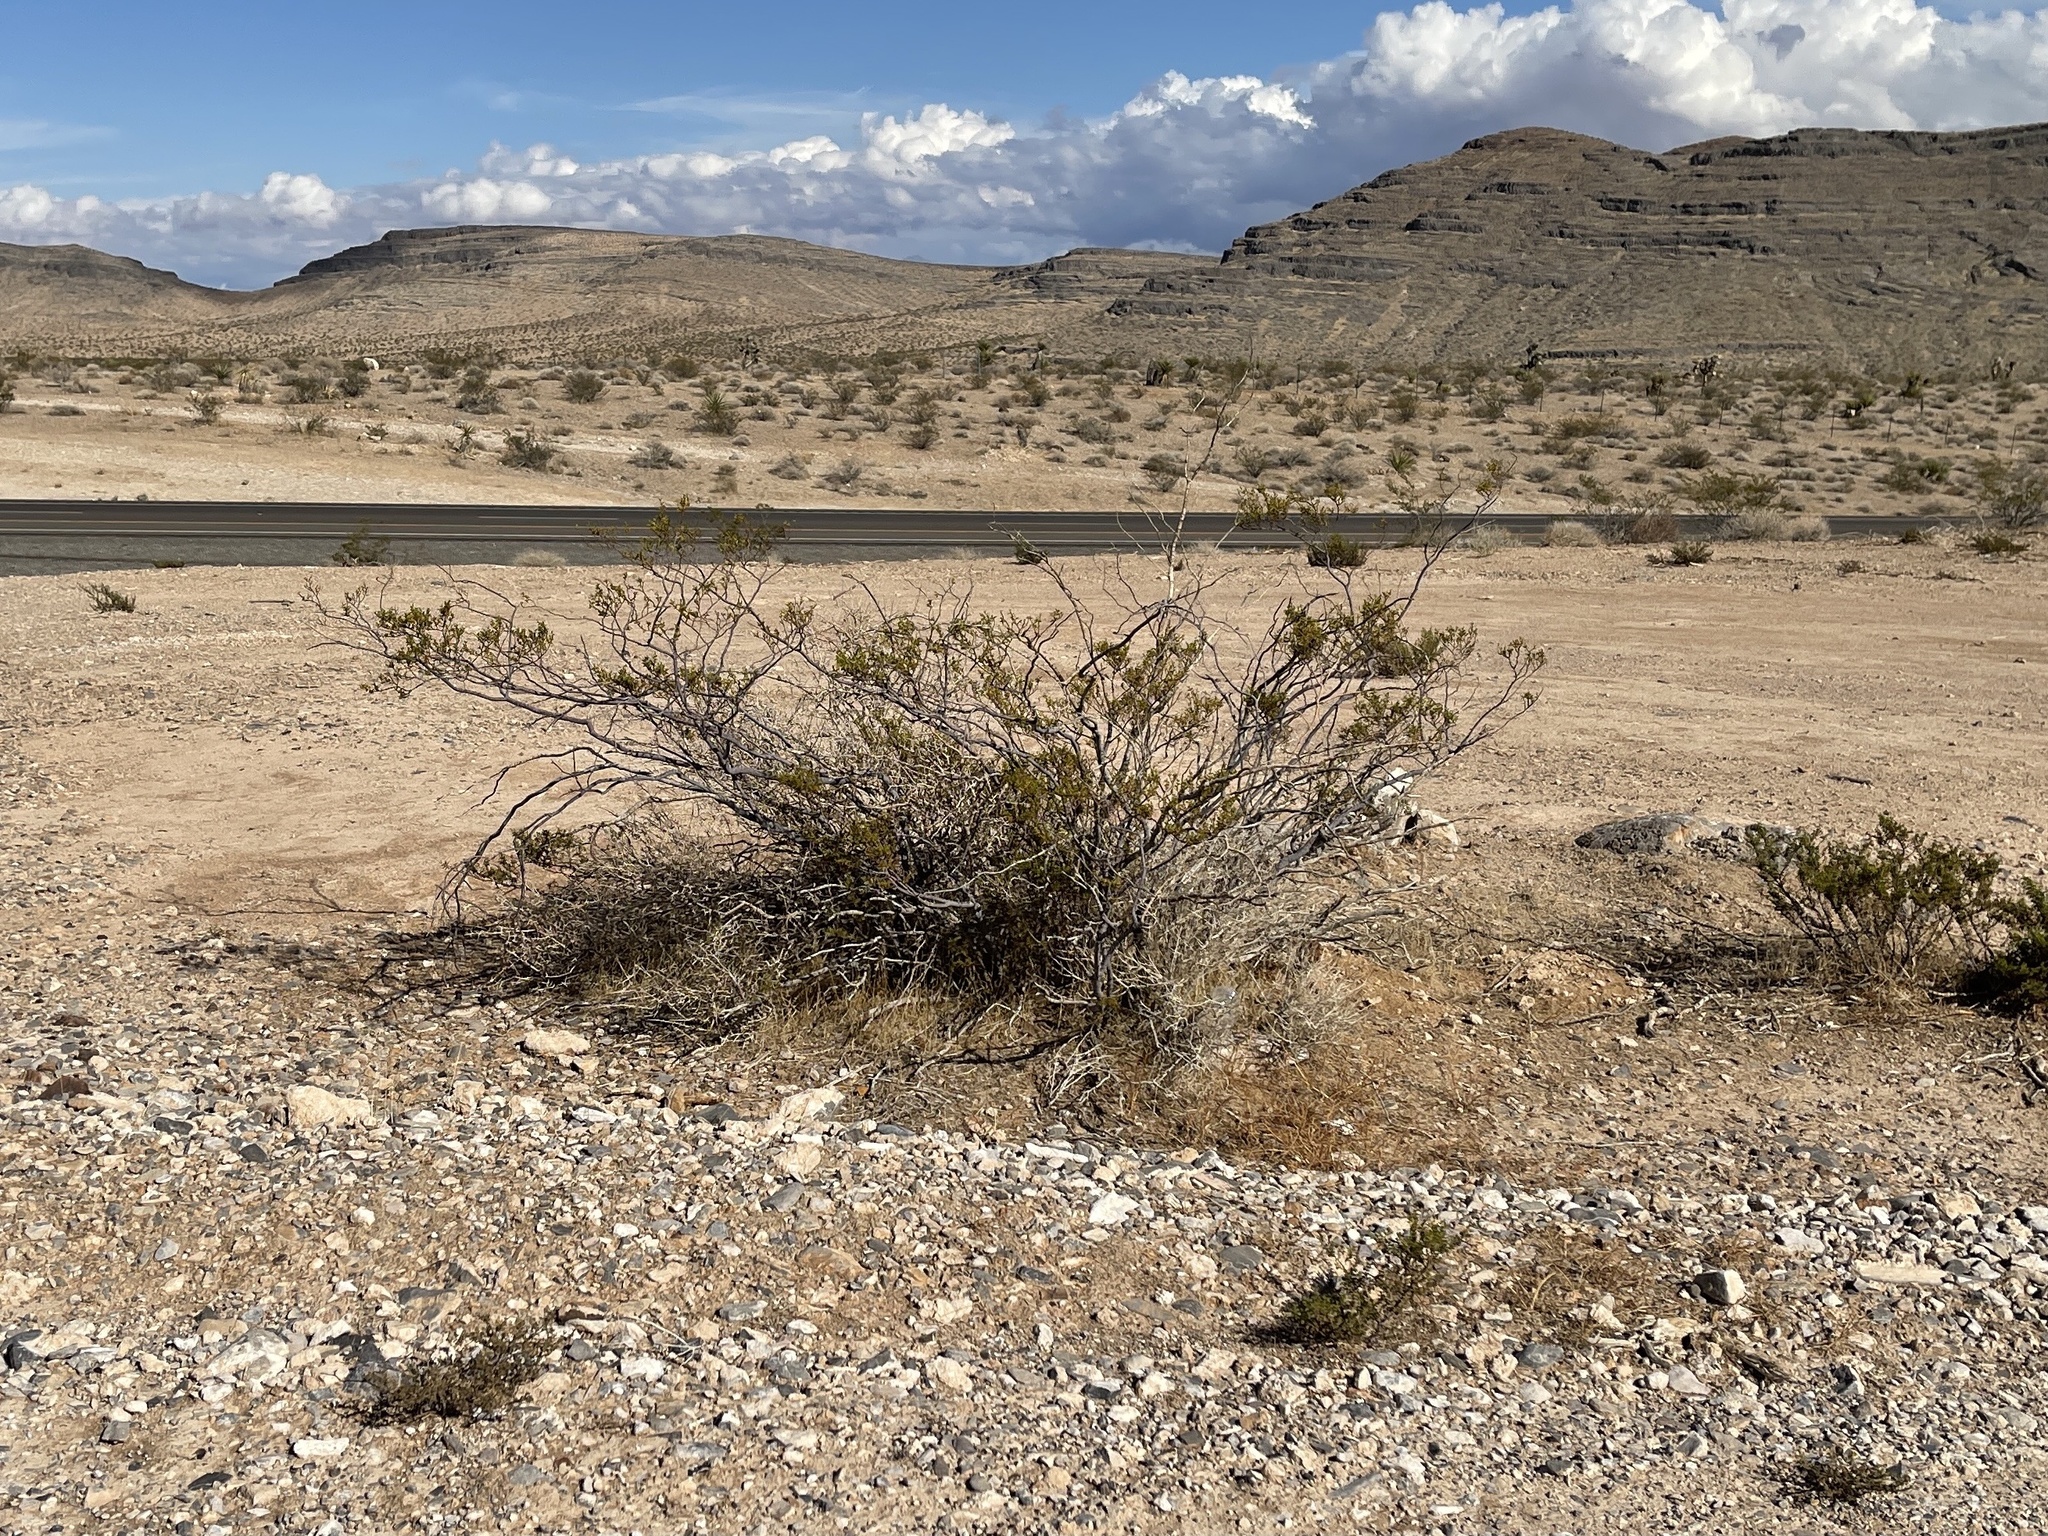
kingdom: Plantae
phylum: Tracheophyta
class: Magnoliopsida
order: Zygophyllales
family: Zygophyllaceae
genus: Larrea
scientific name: Larrea tridentata
